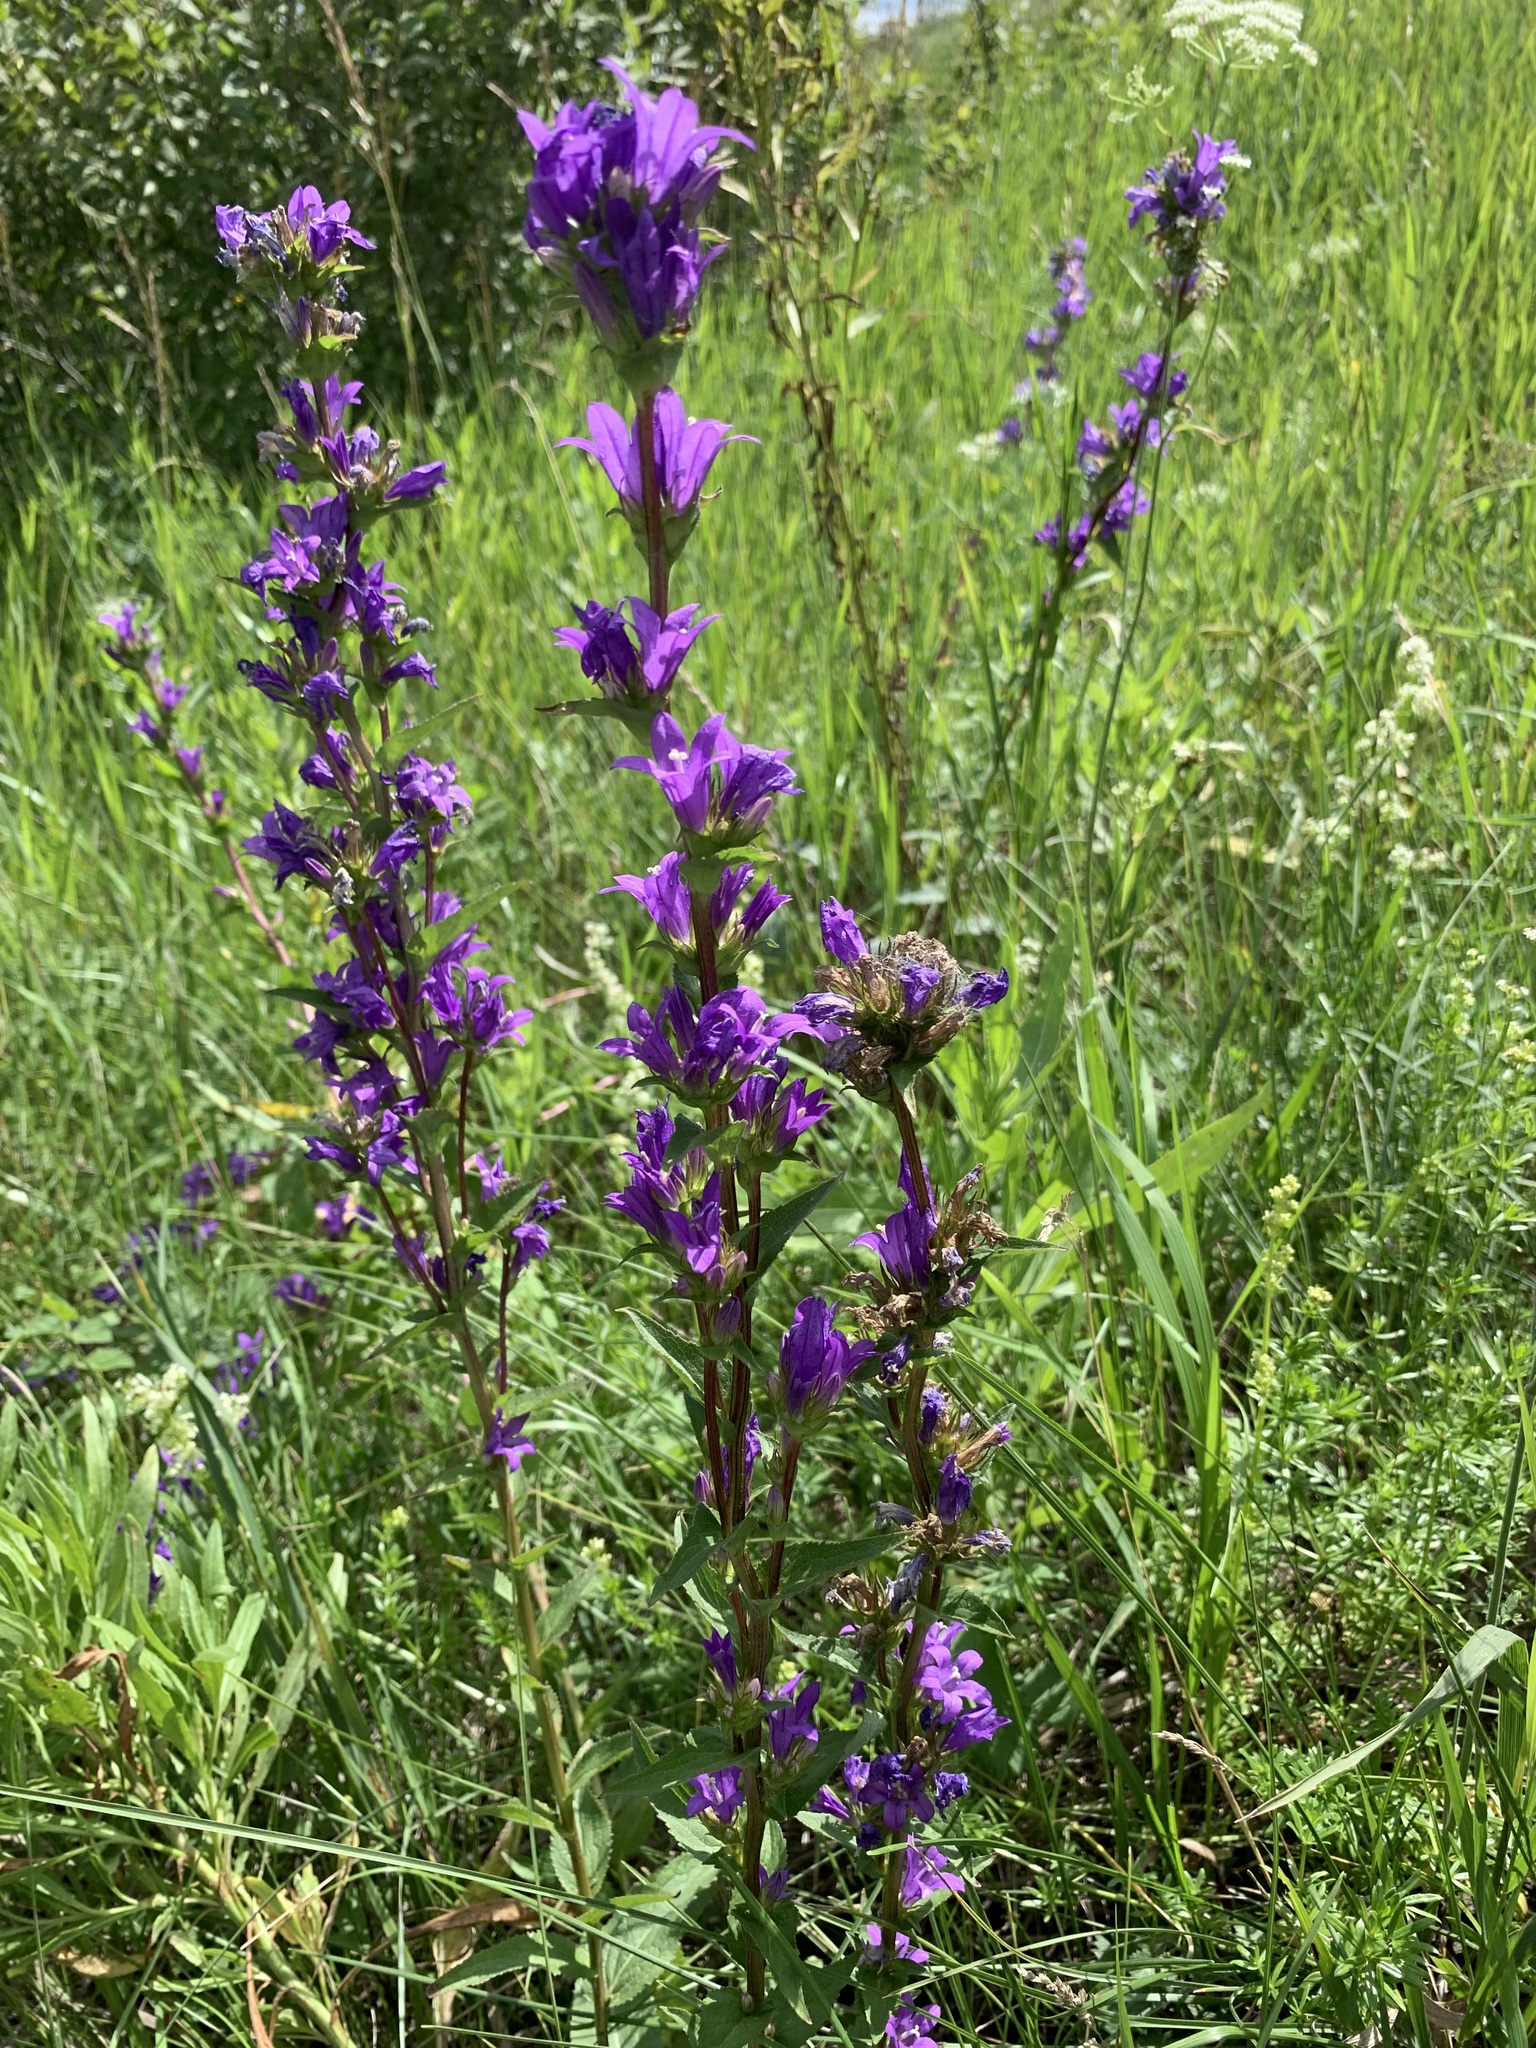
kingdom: Plantae
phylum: Tracheophyta
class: Magnoliopsida
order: Asterales
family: Campanulaceae
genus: Campanula
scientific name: Campanula glomerata
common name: Clustered bellflower
